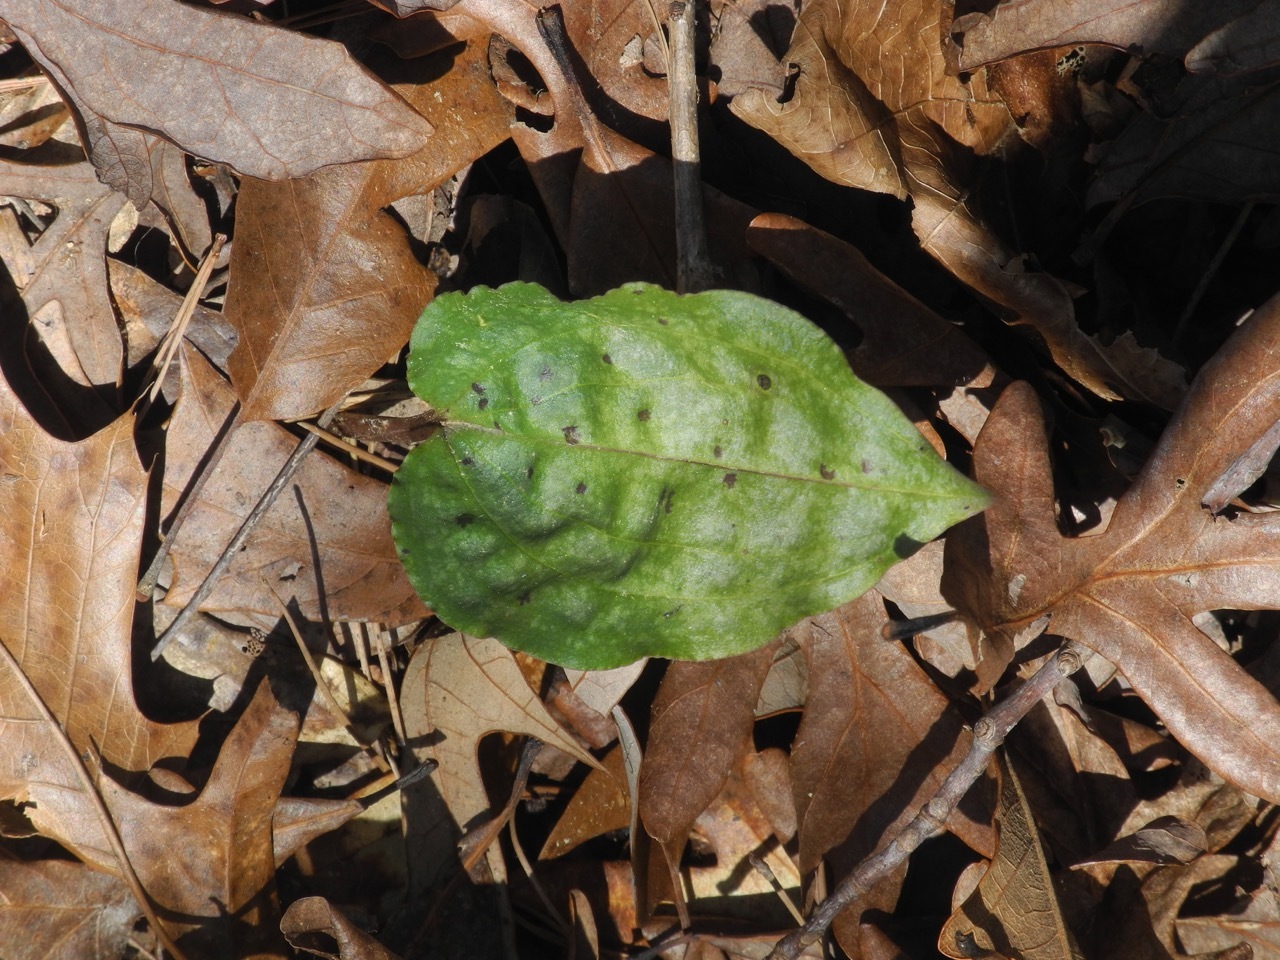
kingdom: Plantae
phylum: Tracheophyta
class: Liliopsida
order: Asparagales
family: Orchidaceae
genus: Tipularia
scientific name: Tipularia discolor
